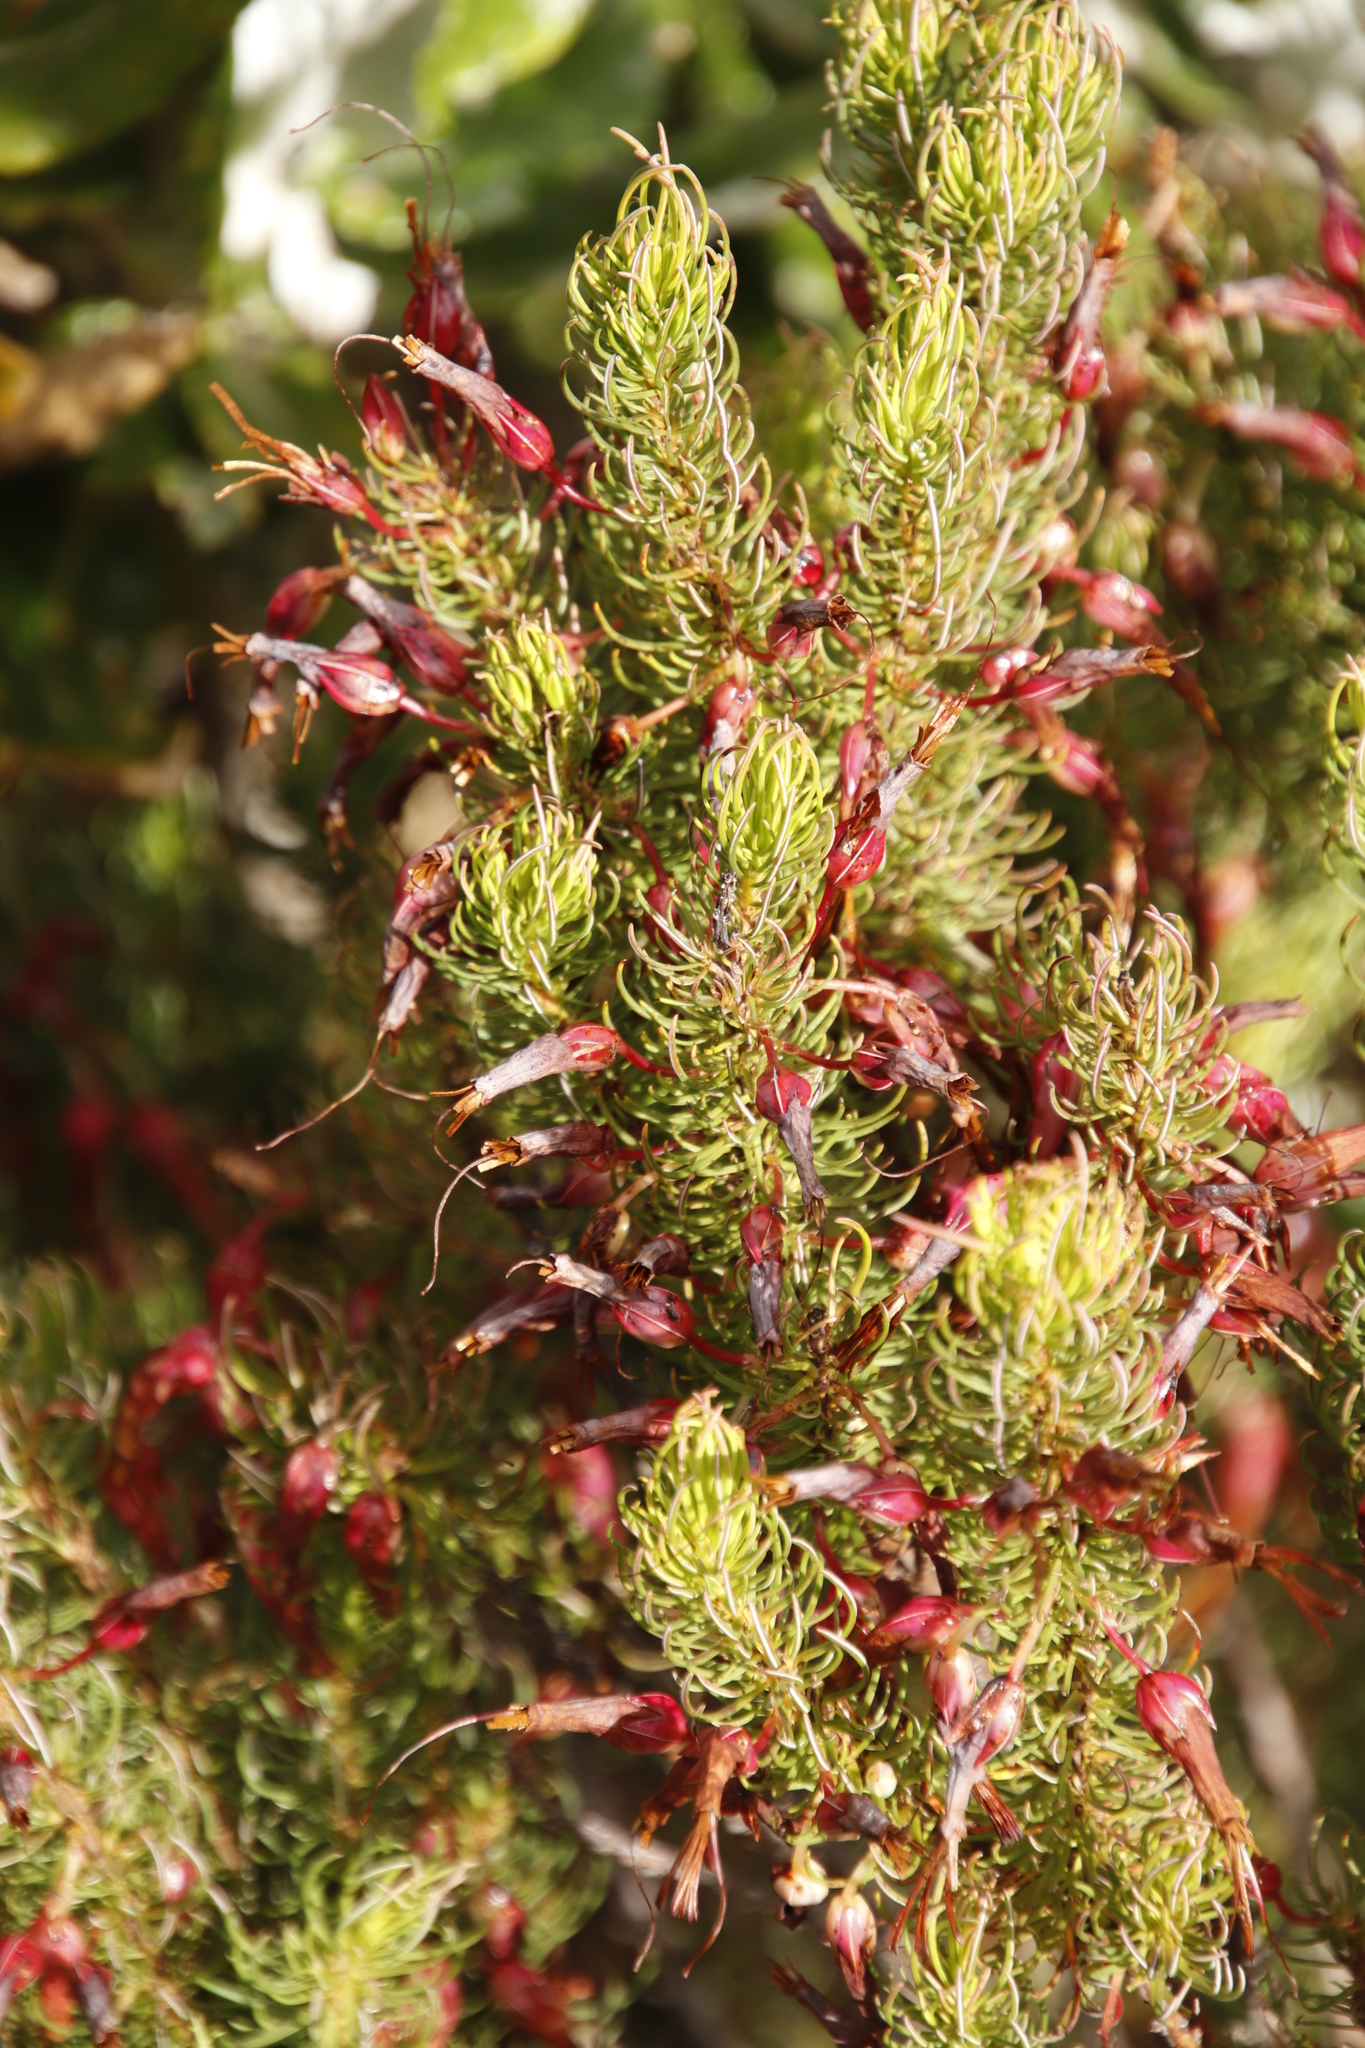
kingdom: Plantae
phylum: Tracheophyta
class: Magnoliopsida
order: Ericales
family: Ericaceae
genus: Erica
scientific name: Erica plukenetii
